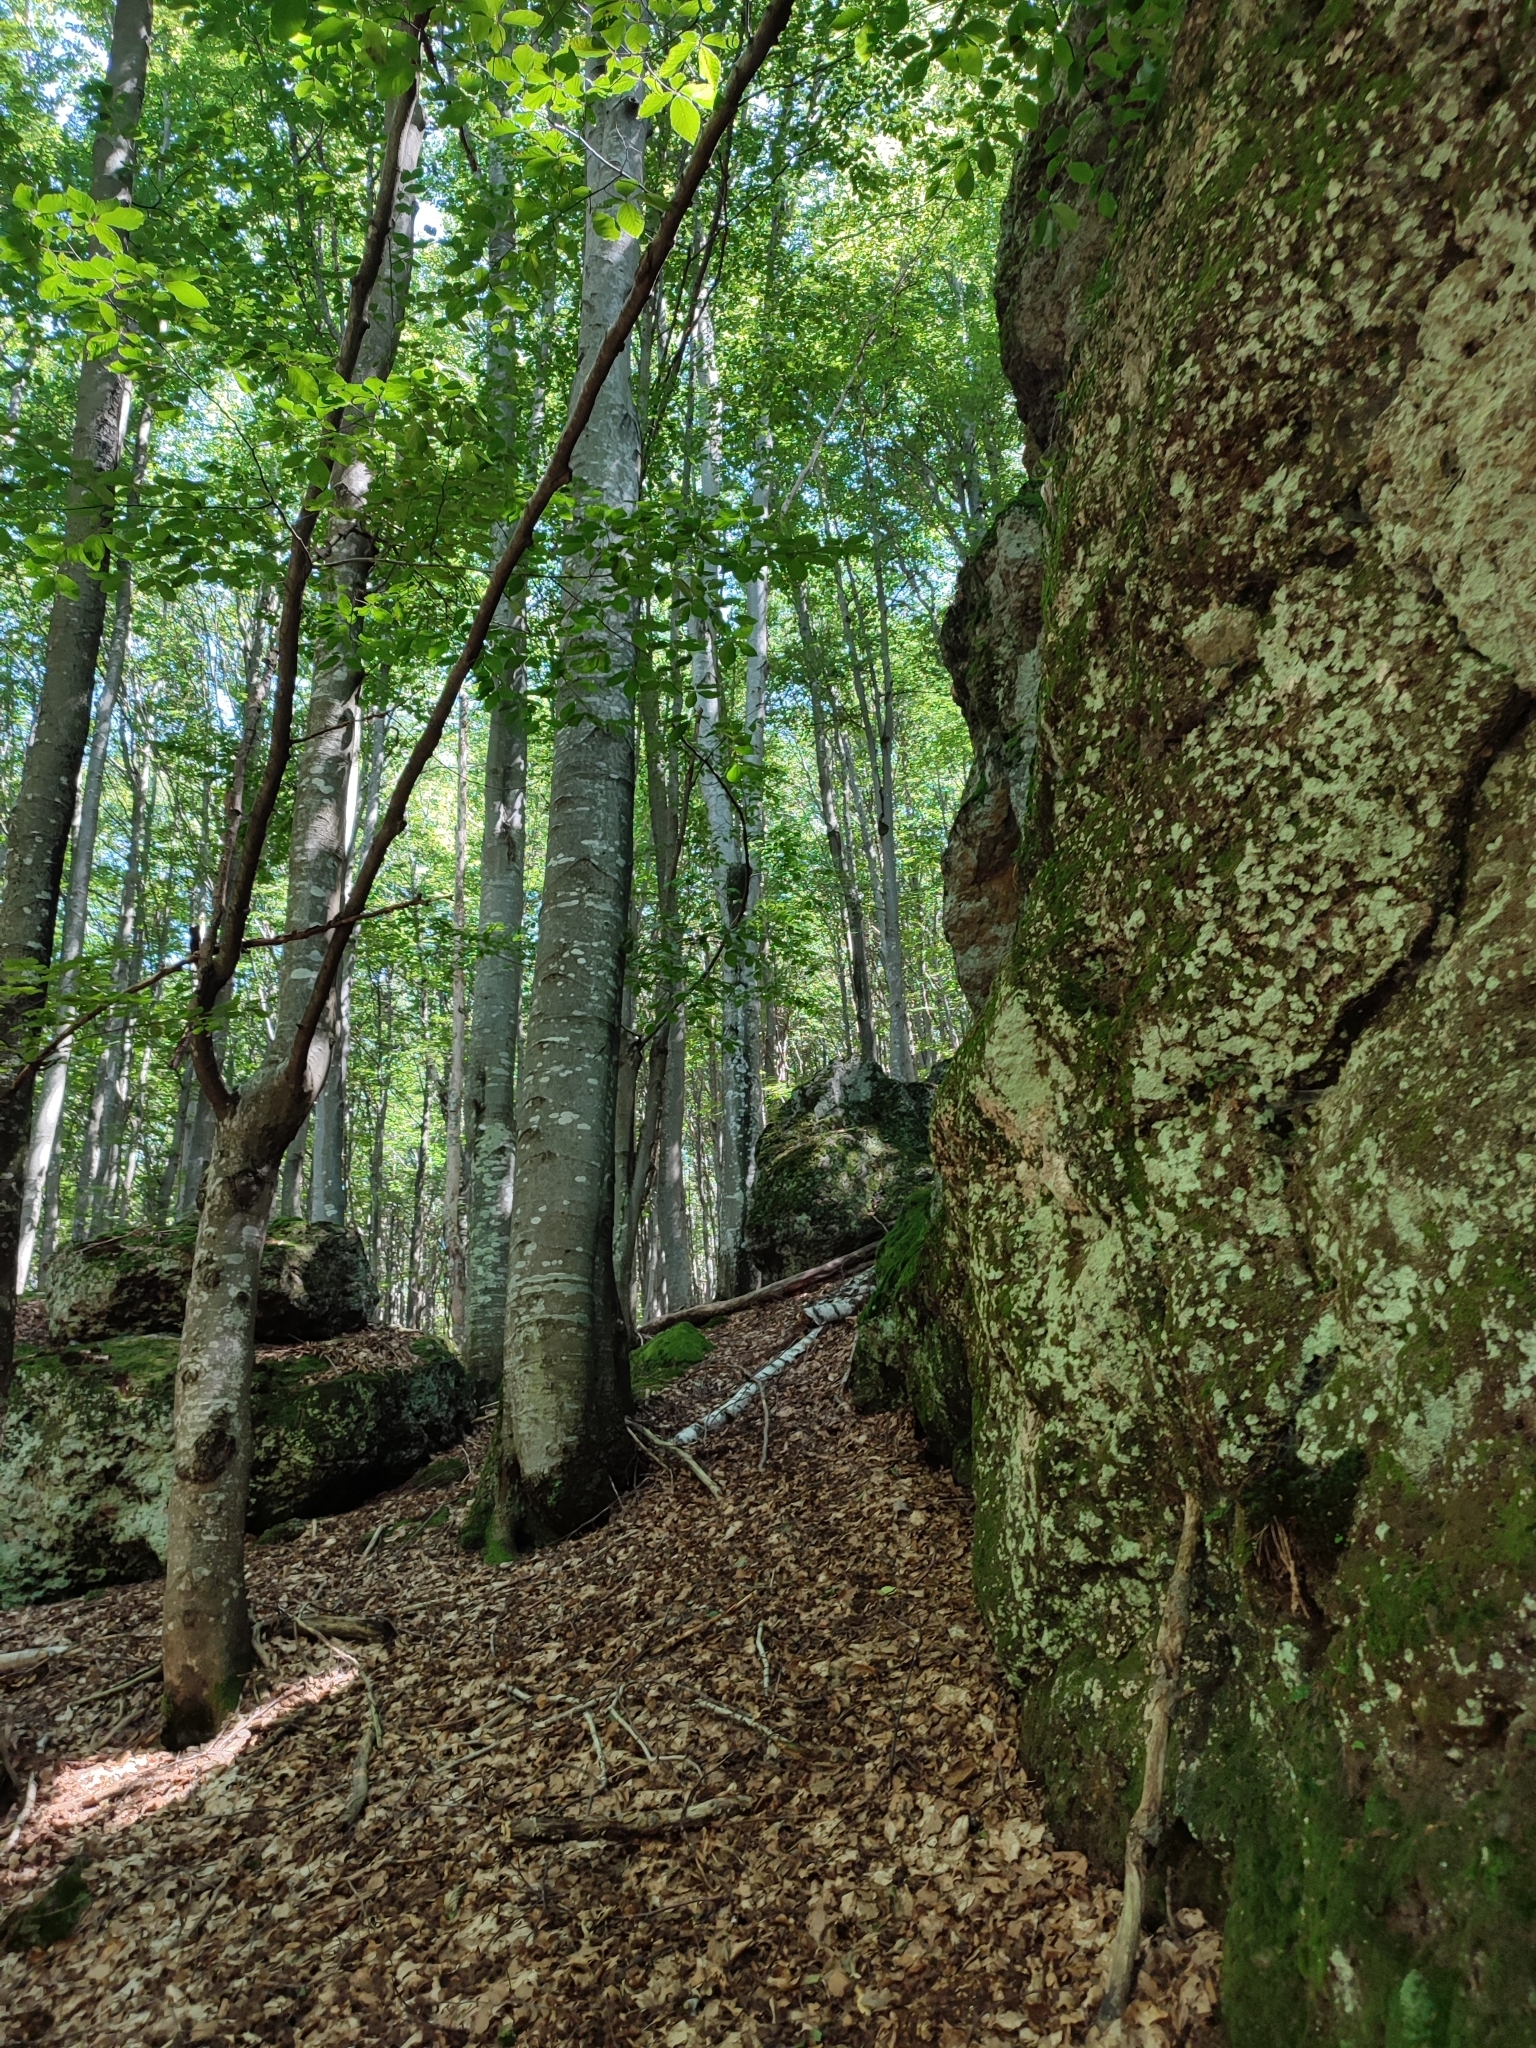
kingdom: Plantae
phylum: Tracheophyta
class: Magnoliopsida
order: Fagales
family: Fagaceae
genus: Fagus
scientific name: Fagus sylvatica
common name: Beech
